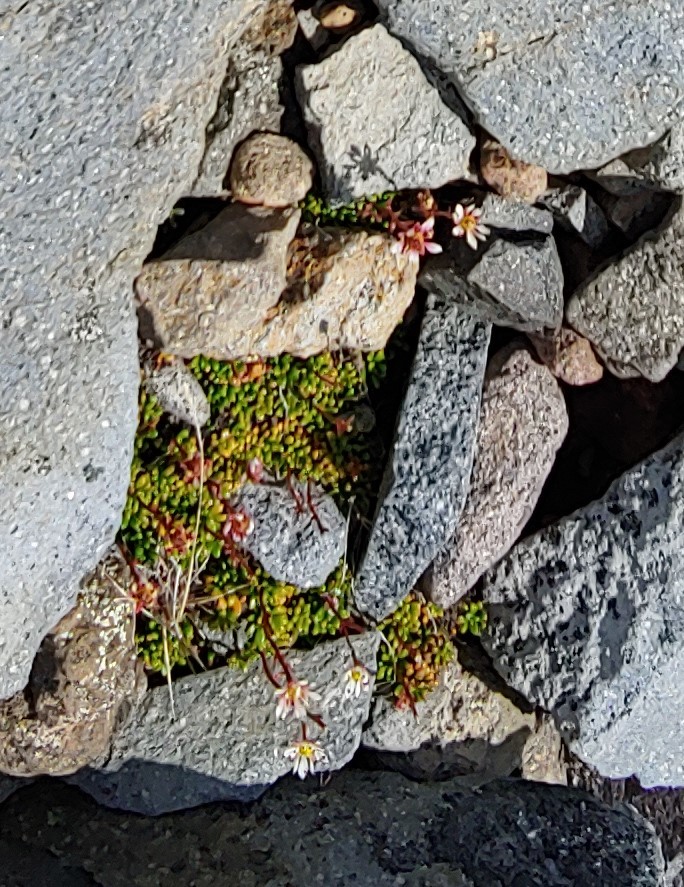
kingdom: Plantae
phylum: Tracheophyta
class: Magnoliopsida
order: Saxifragales
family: Saxifragaceae
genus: Micranthes
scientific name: Micranthes tolmiei
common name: Tolmie's saxifrage
